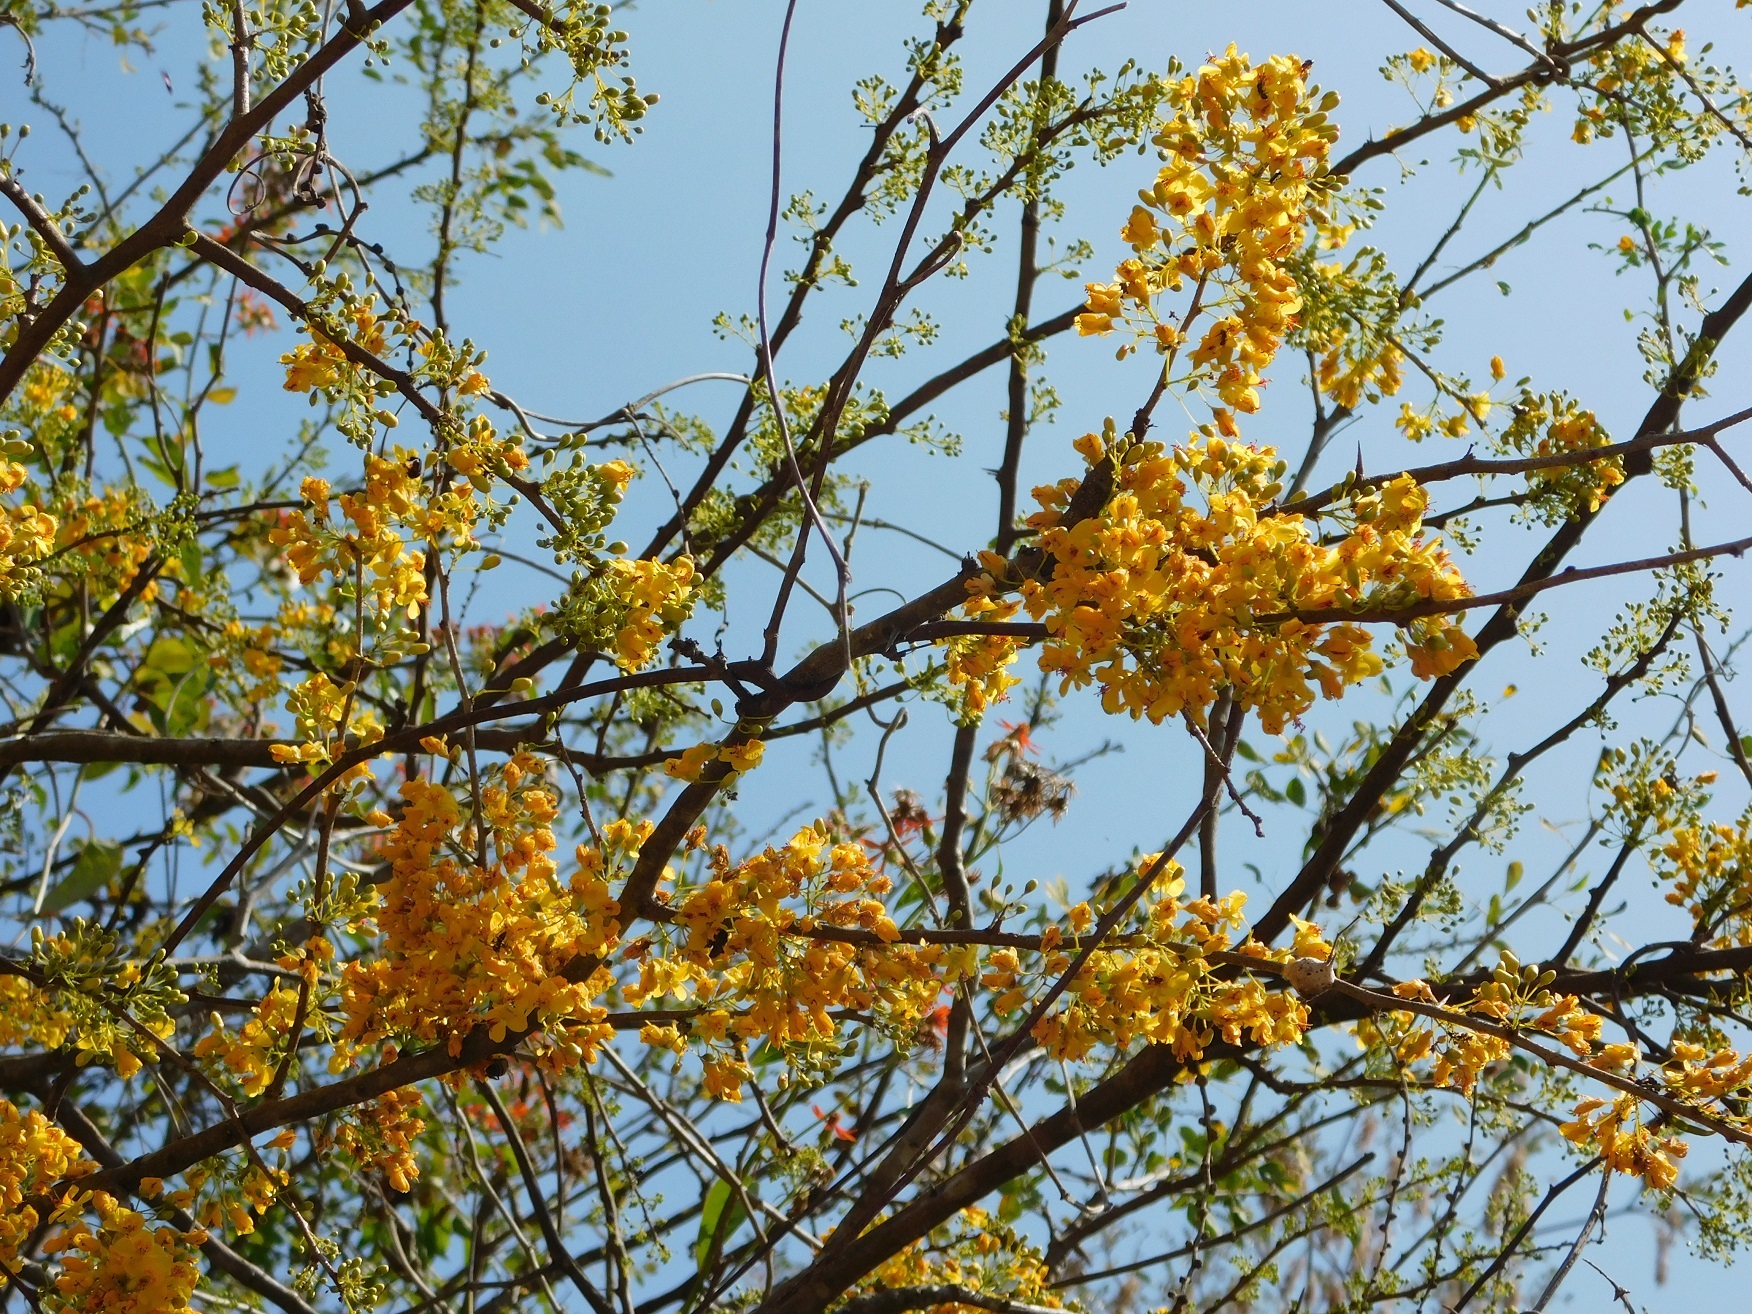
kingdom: Plantae
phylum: Tracheophyta
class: Magnoliopsida
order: Fabales
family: Fabaceae
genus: Haematoxylum
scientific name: Haematoxylum brasiletto
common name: Peachwood
